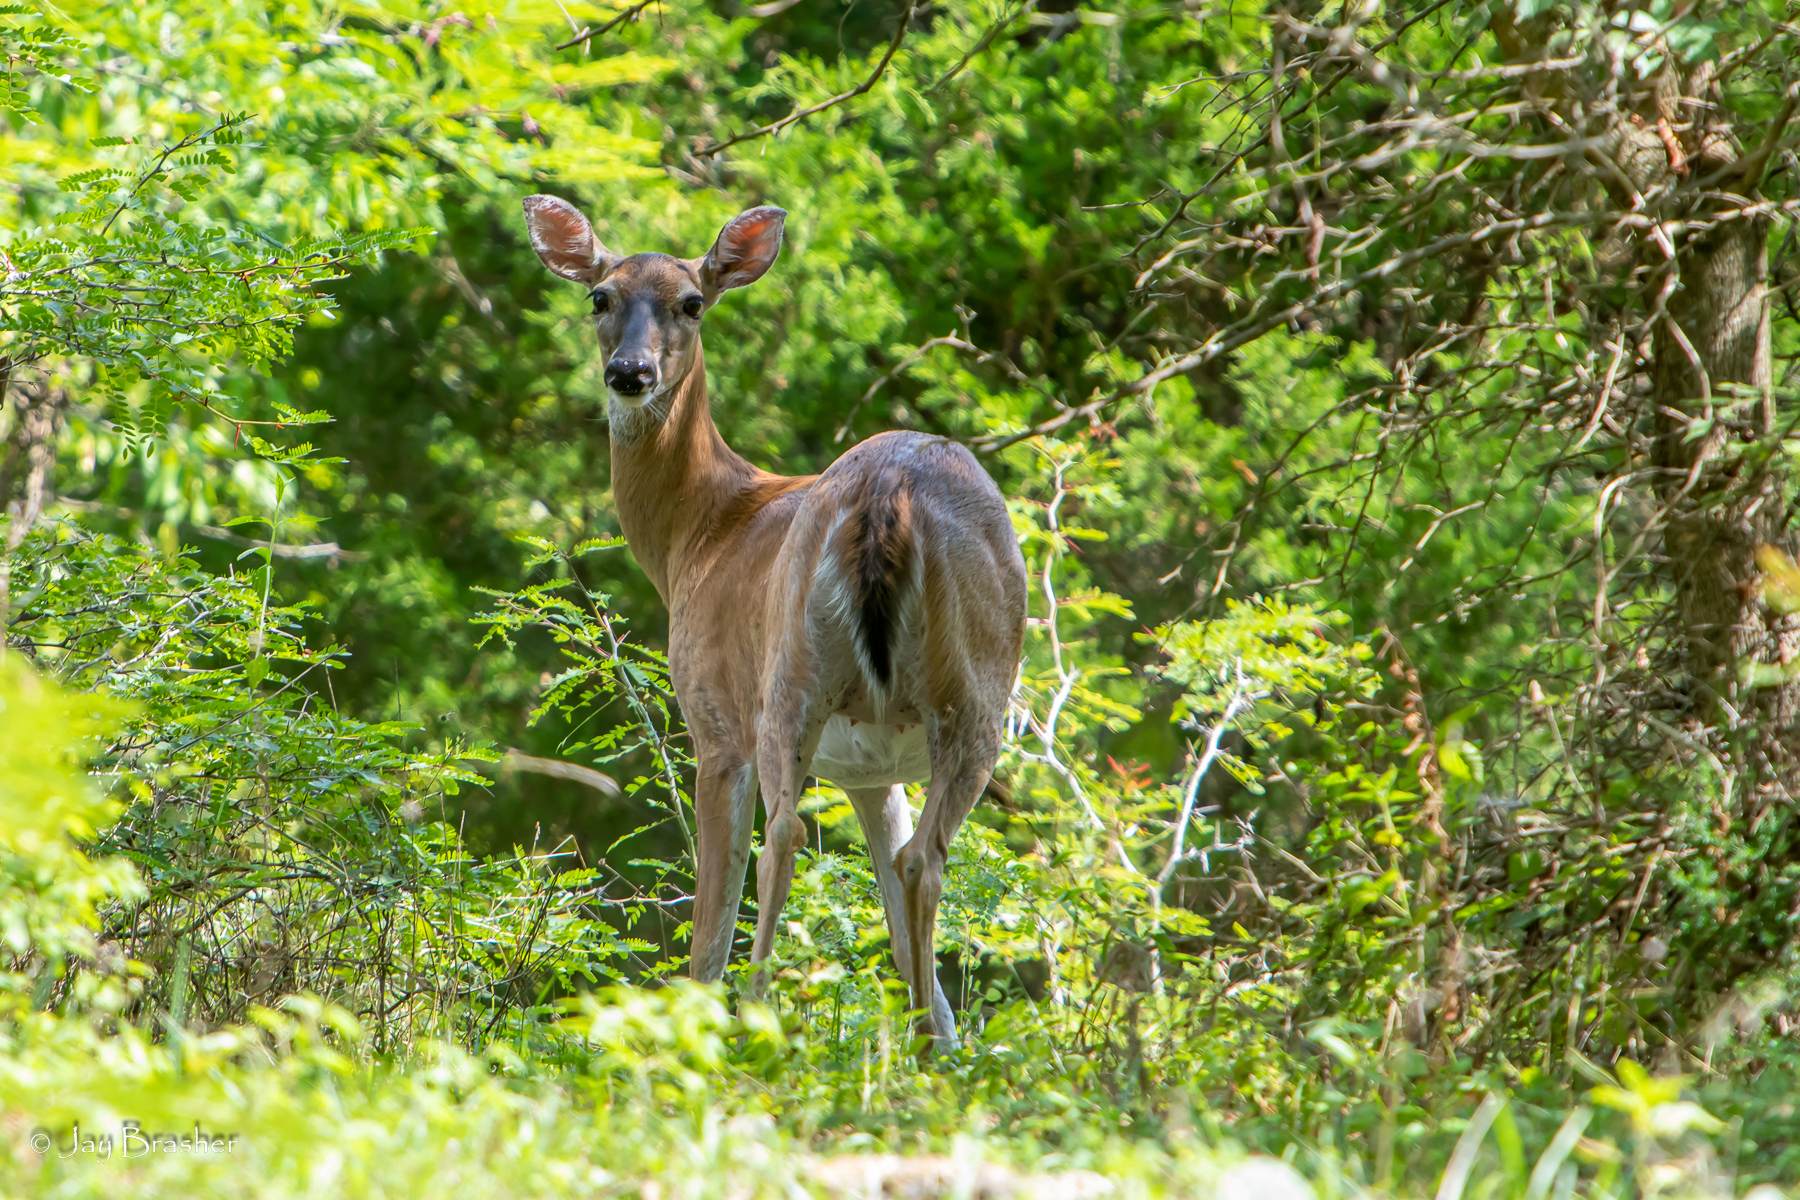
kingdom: Animalia
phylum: Chordata
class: Mammalia
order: Artiodactyla
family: Cervidae
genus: Odocoileus
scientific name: Odocoileus virginianus
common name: White-tailed deer
